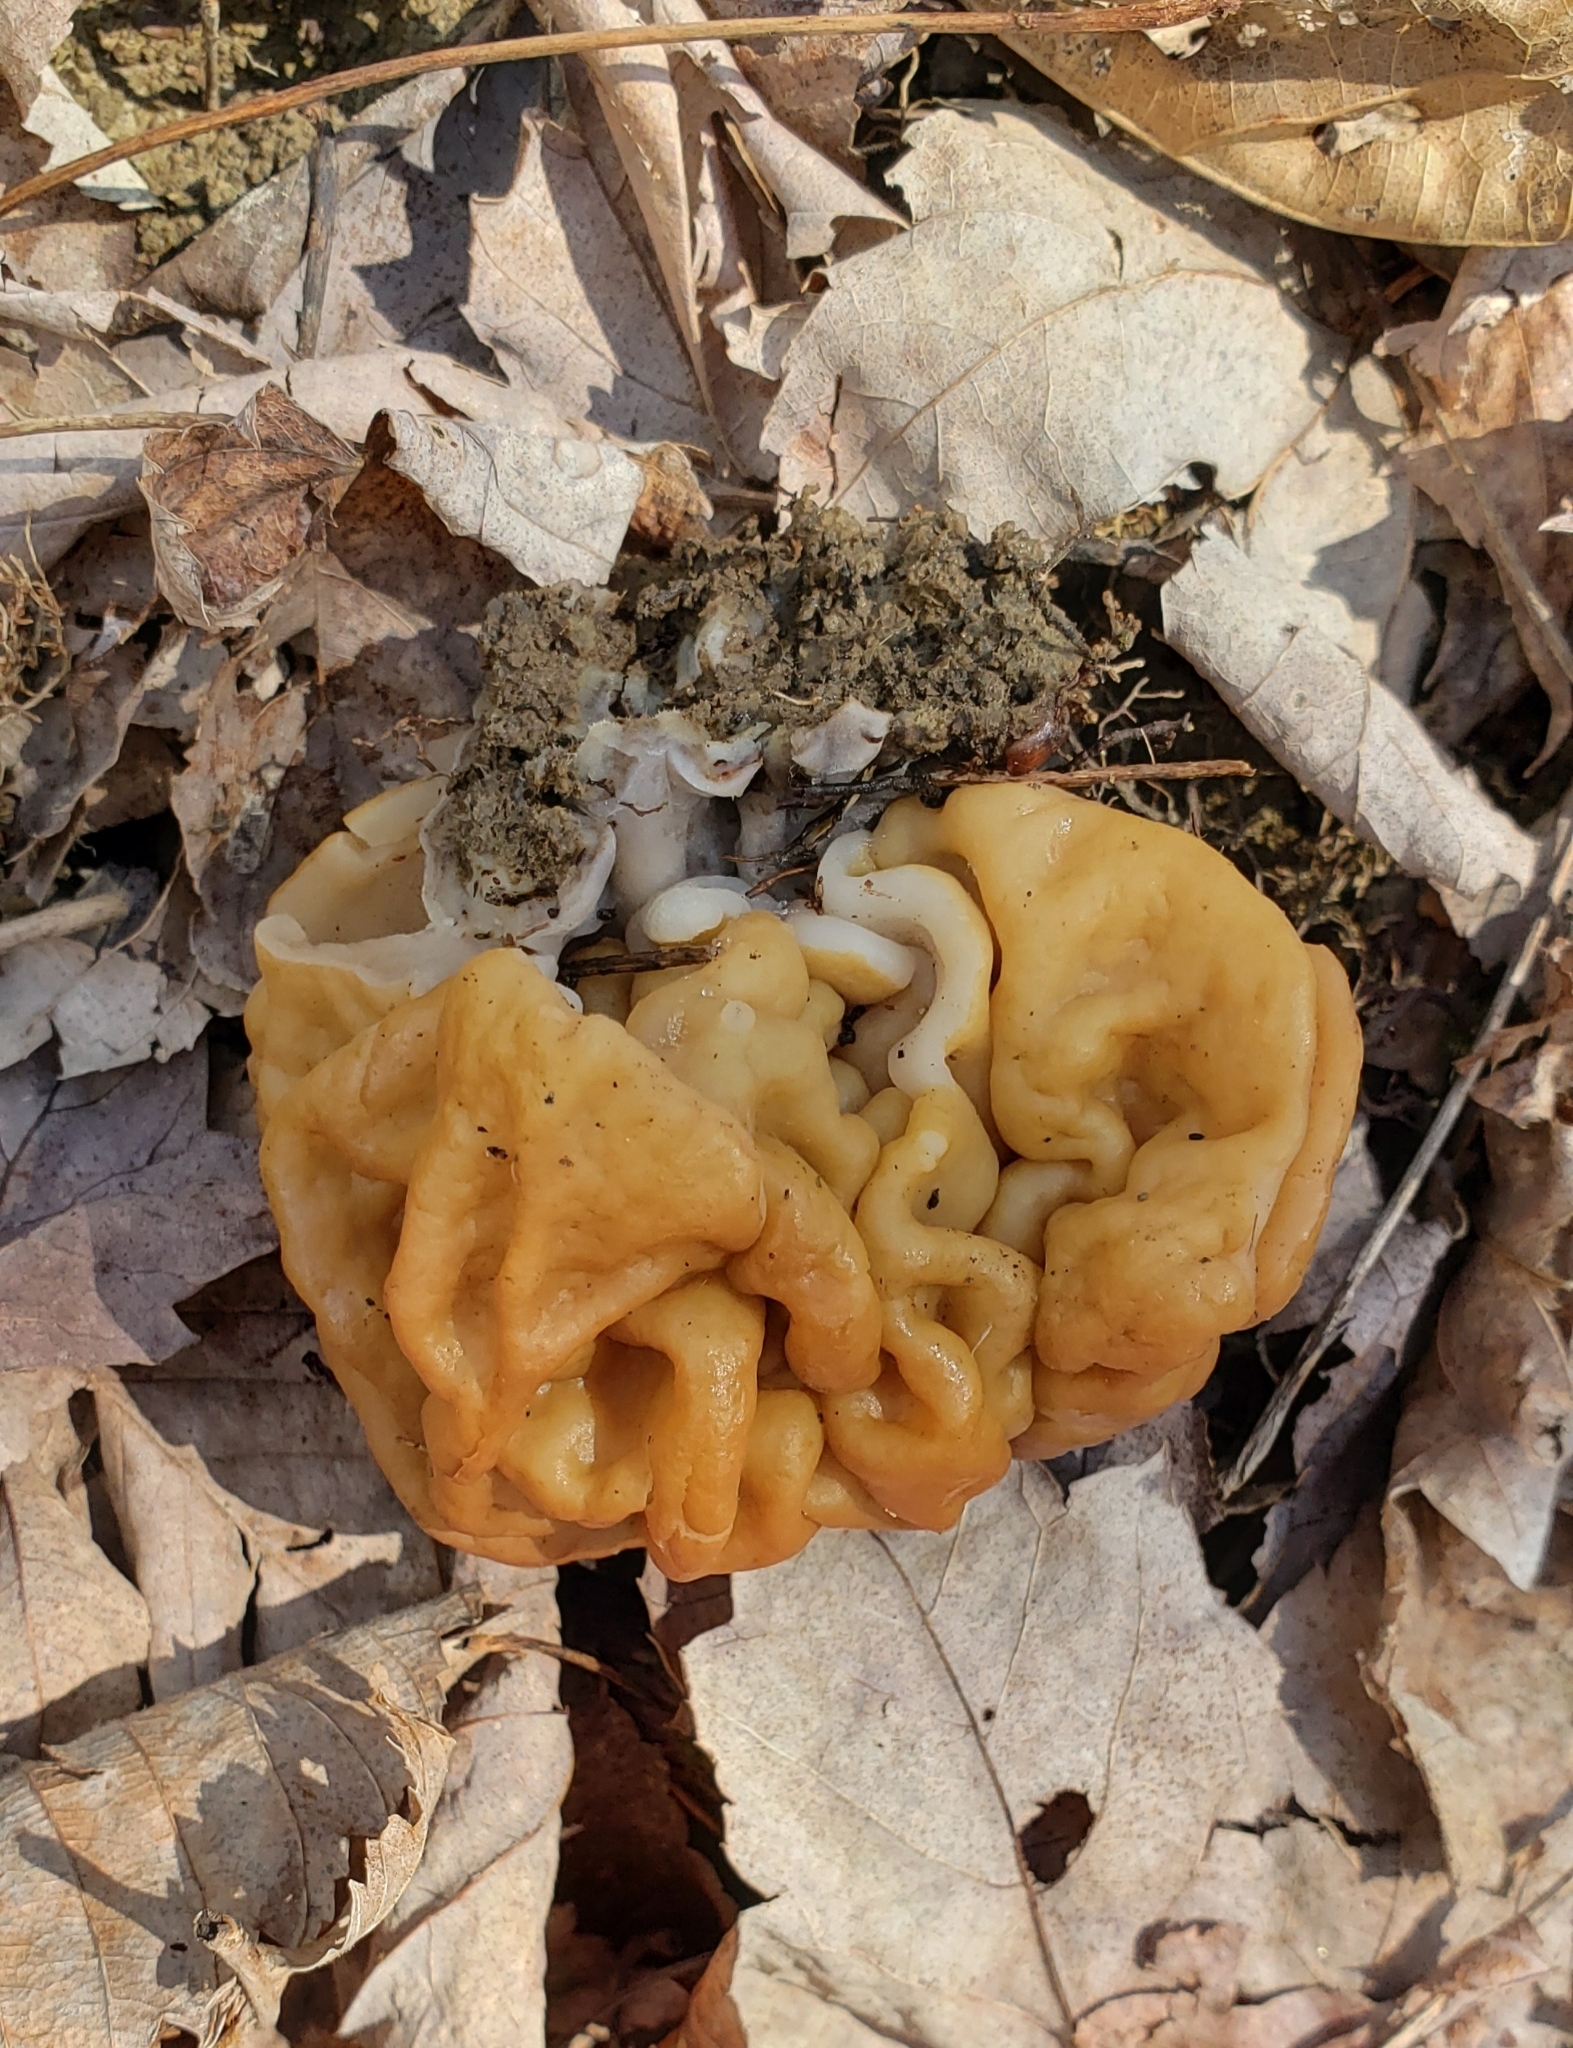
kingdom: Fungi
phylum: Ascomycota
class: Pezizomycetes
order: Pezizales
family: Discinaceae
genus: Gyromitra
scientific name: Gyromitra korfii
